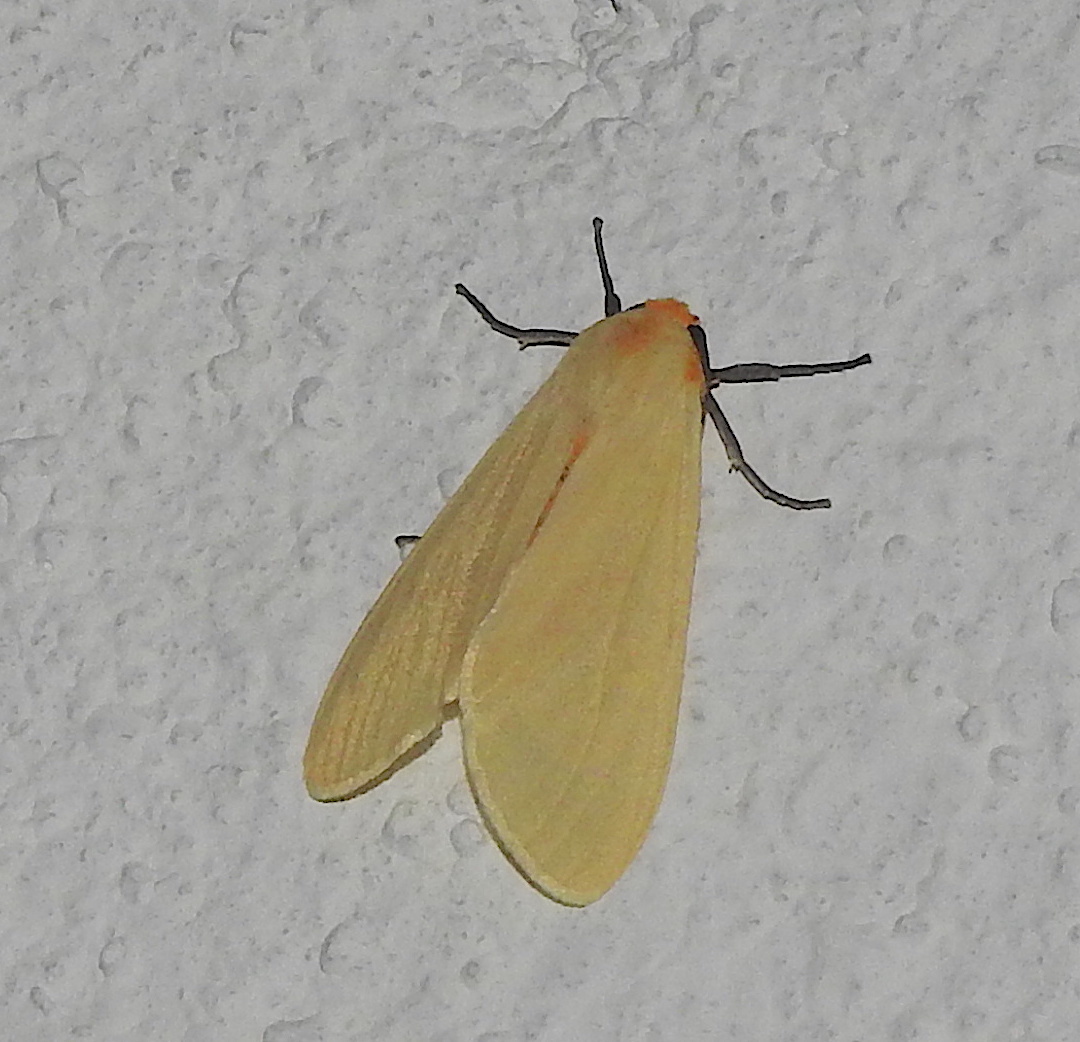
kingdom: Animalia
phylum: Arthropoda
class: Insecta
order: Lepidoptera
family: Erebidae
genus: Pareuchaetes
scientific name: Pareuchaetes pseudoinsulata
